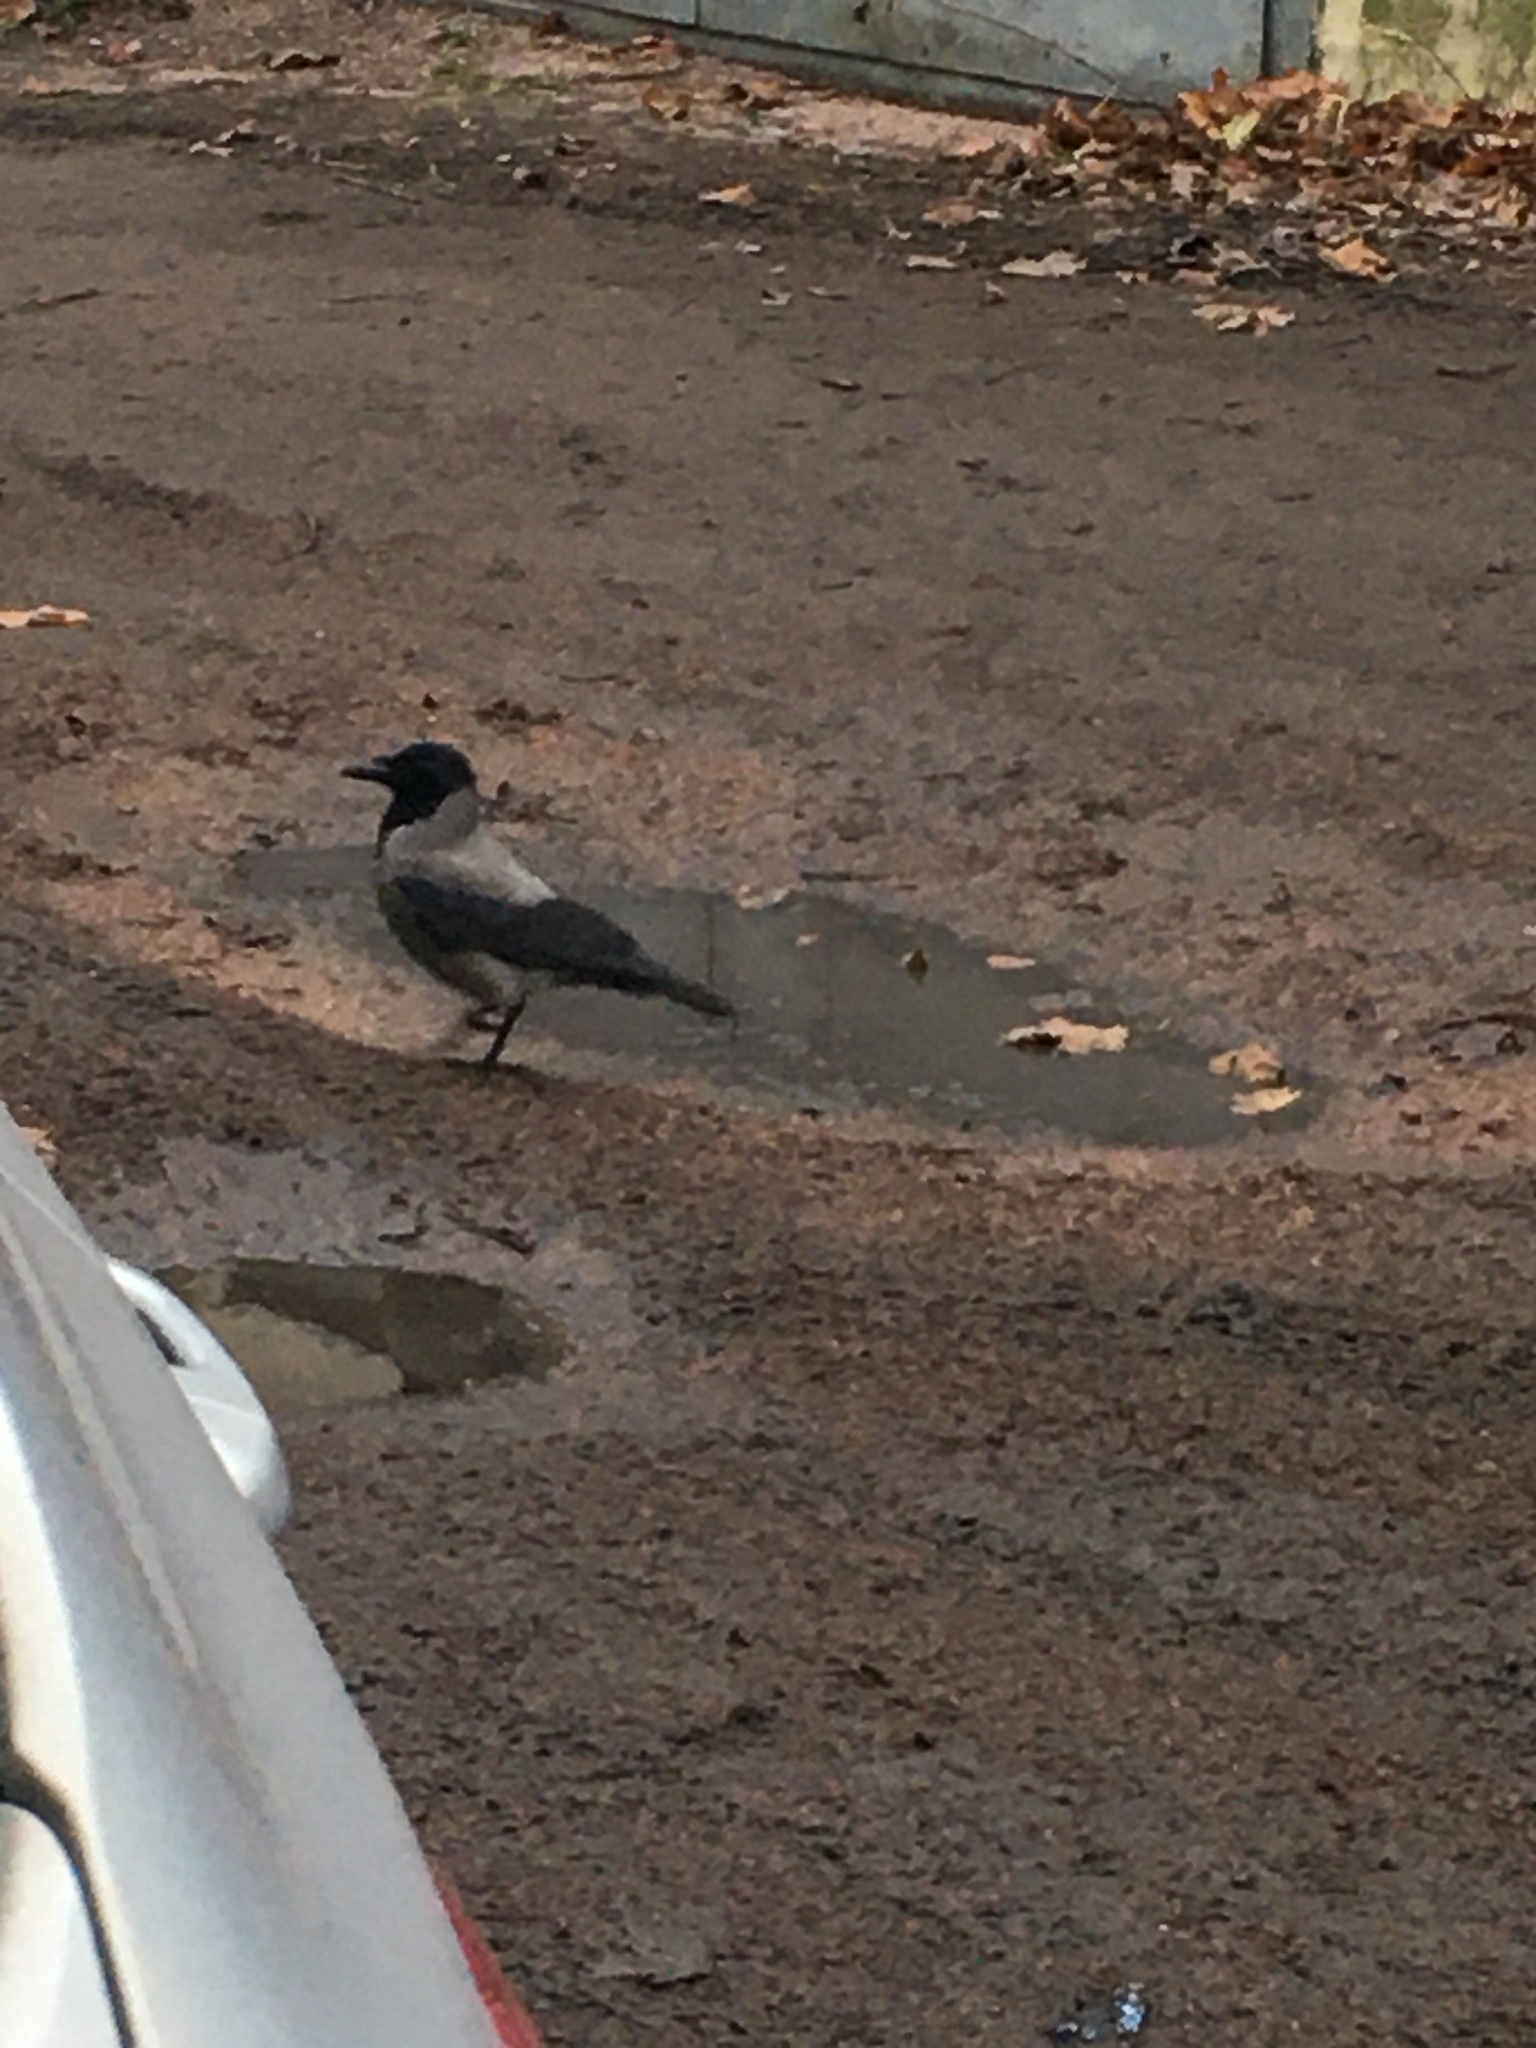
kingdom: Animalia
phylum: Chordata
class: Aves
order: Passeriformes
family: Corvidae
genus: Corvus
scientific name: Corvus cornix
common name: Hooded crow
